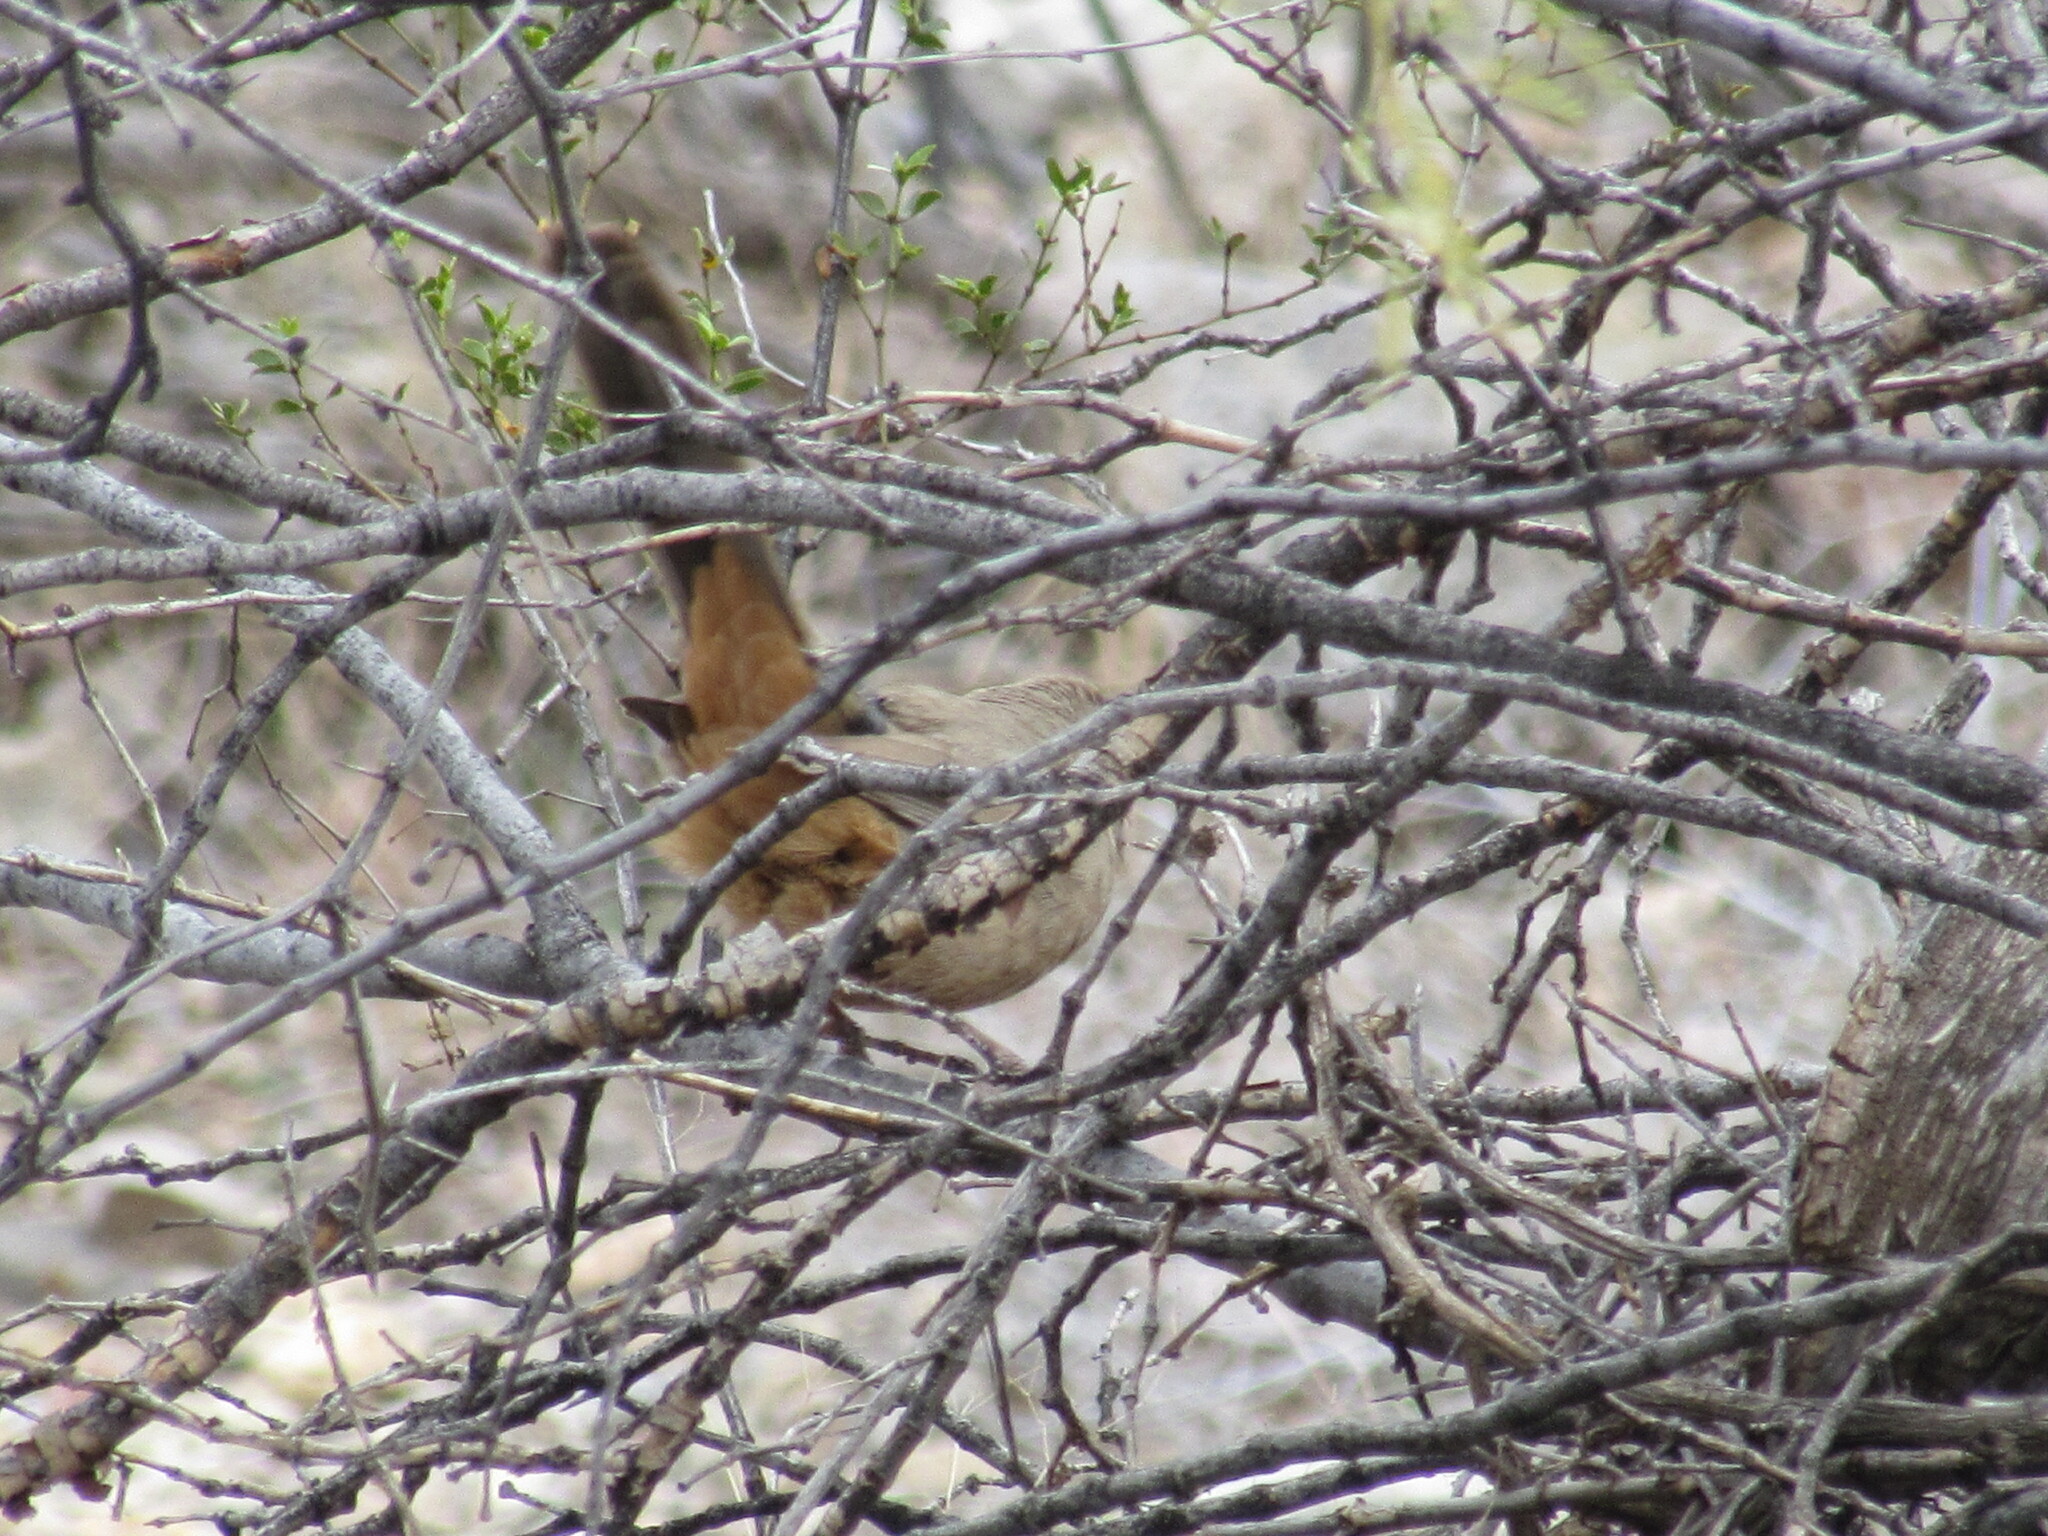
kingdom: Animalia
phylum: Chordata
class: Aves
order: Passeriformes
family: Passerellidae
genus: Melozone
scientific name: Melozone aberti
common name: Abert's towhee
